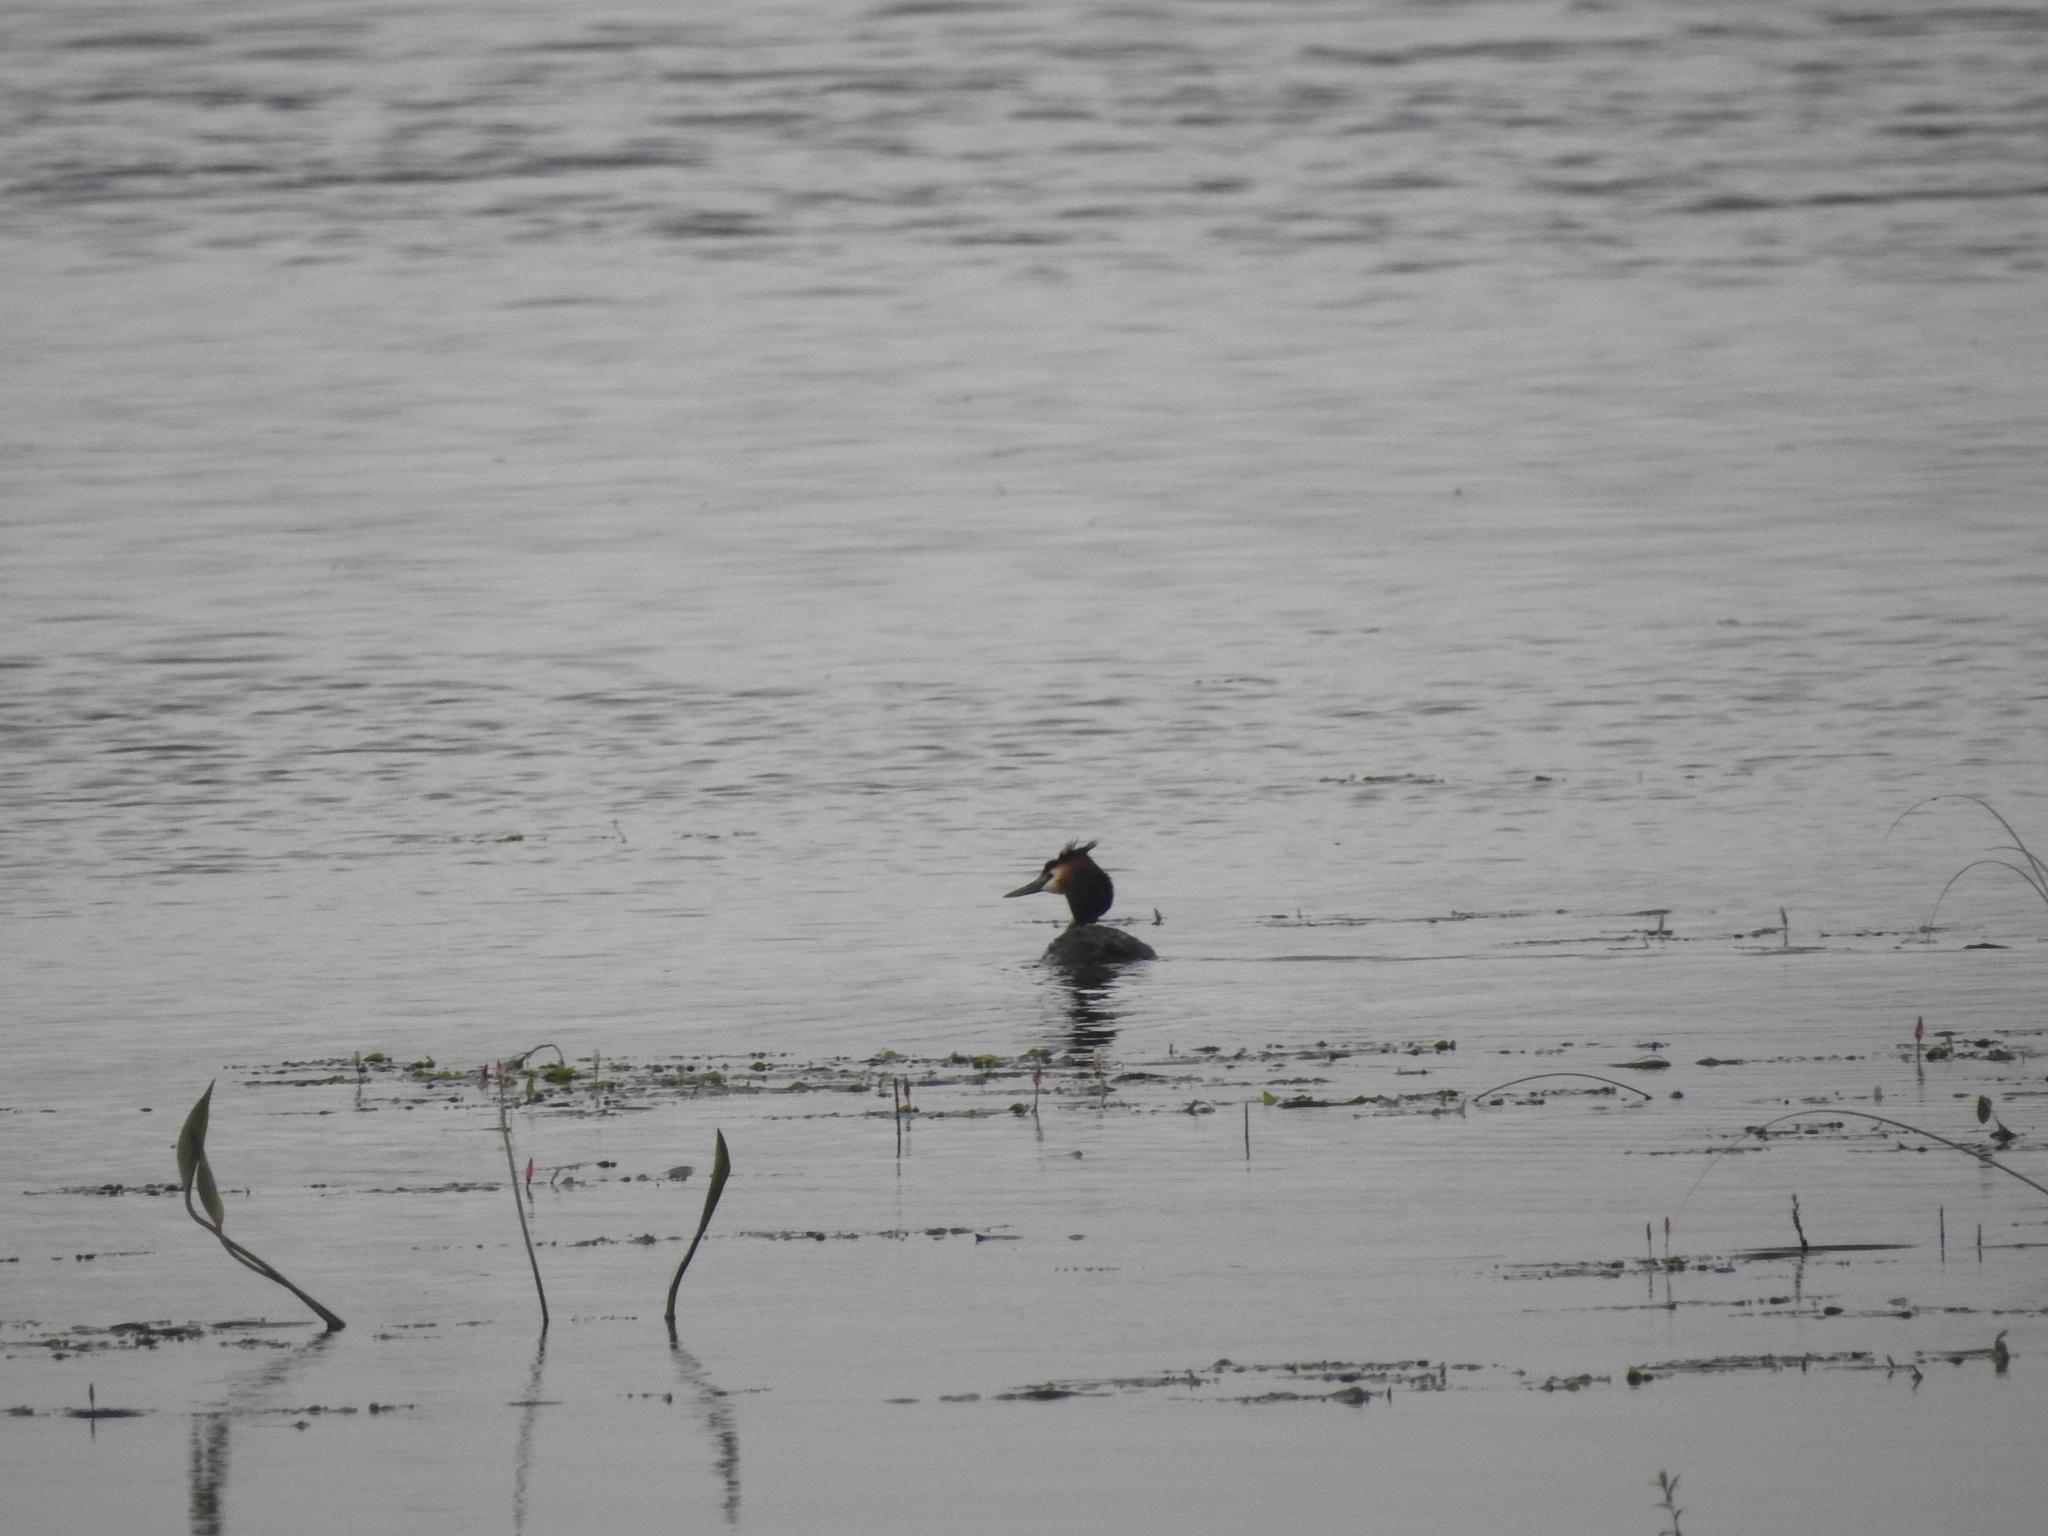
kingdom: Animalia
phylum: Chordata
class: Aves
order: Podicipediformes
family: Podicipedidae
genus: Podiceps
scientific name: Podiceps cristatus
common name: Great crested grebe
